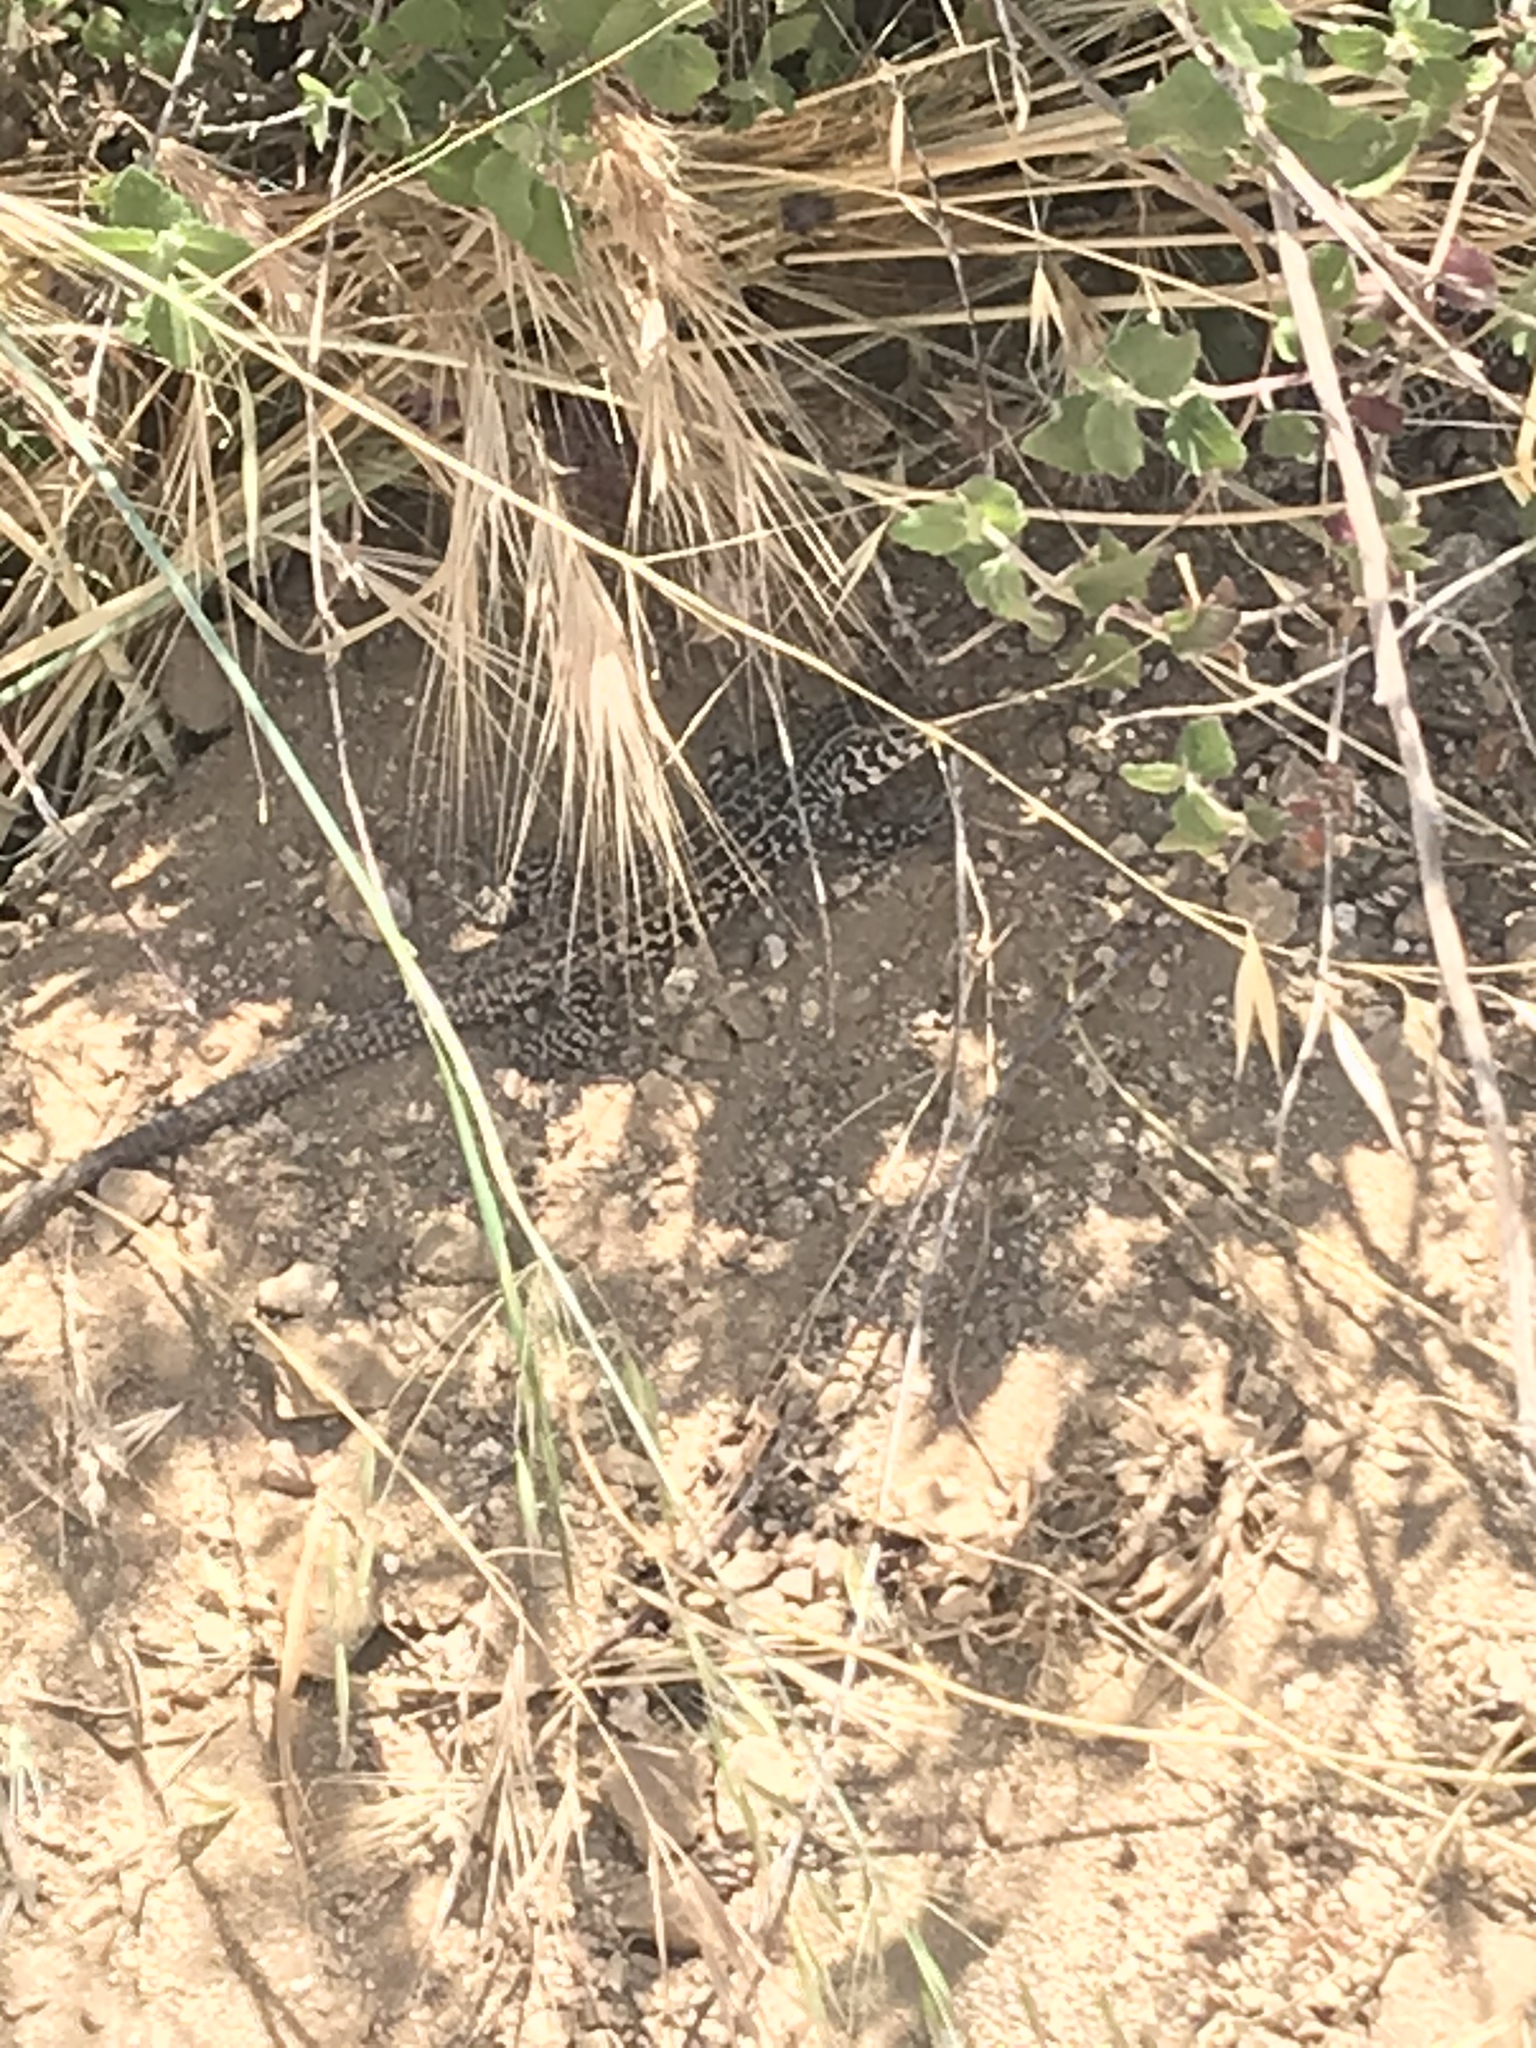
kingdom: Animalia
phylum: Chordata
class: Squamata
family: Teiidae
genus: Aspidoscelis
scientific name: Aspidoscelis tigris
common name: Tiger whiptail
